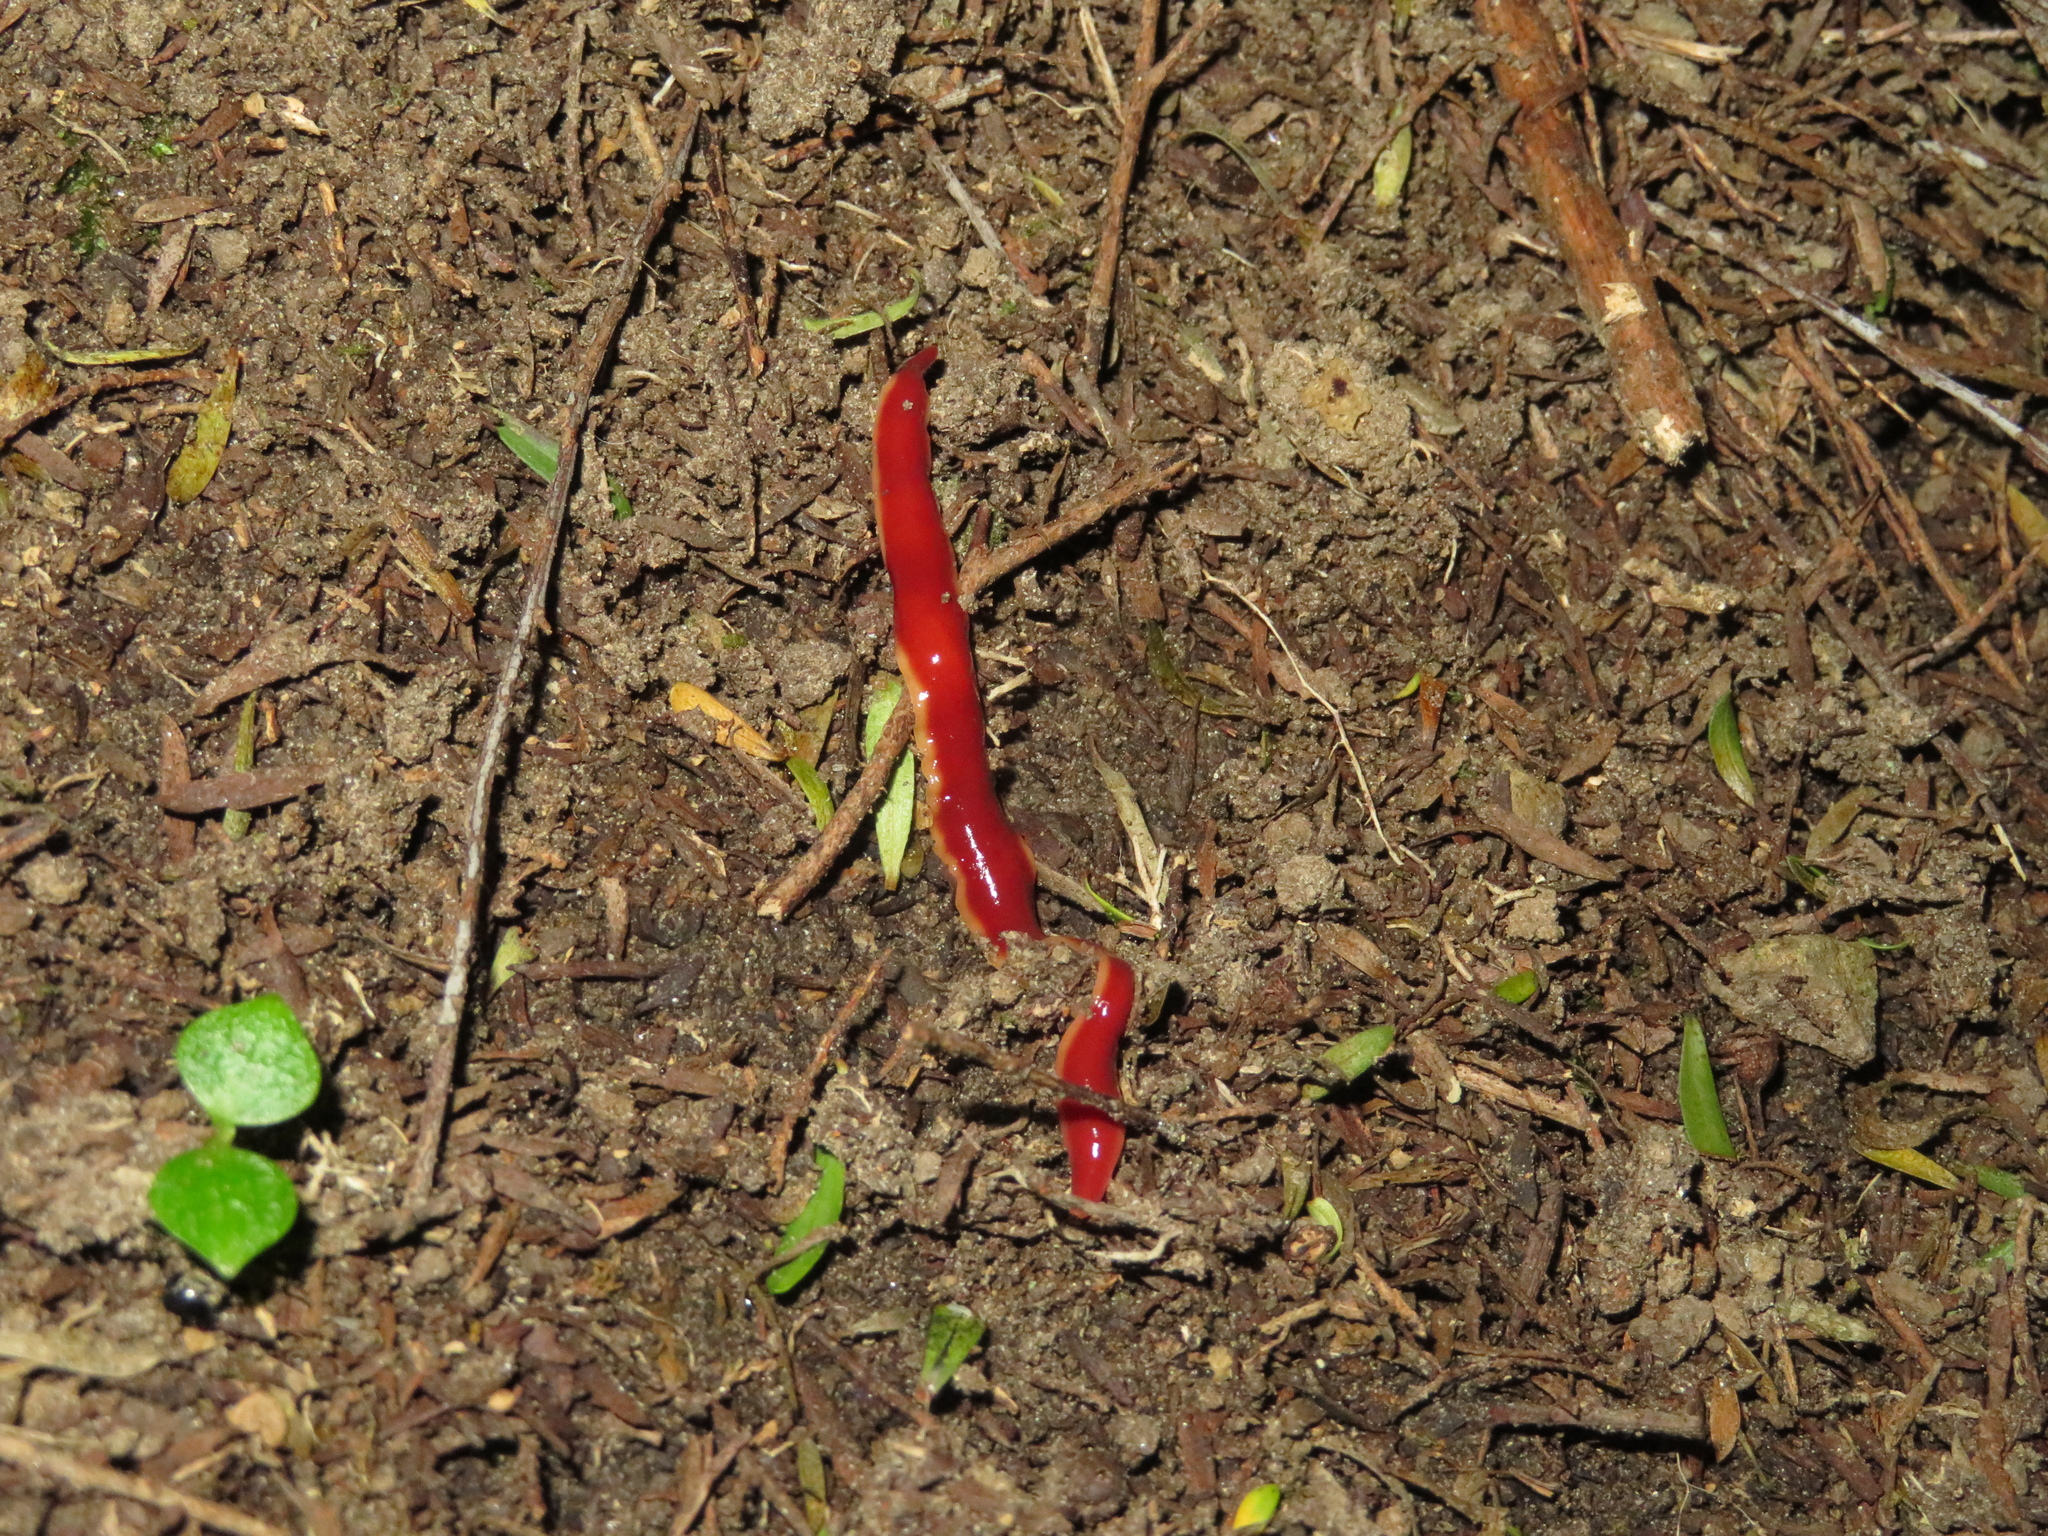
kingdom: Animalia
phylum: Platyhelminthes
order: Tricladida
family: Geoplanidae
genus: Arthurdendyus
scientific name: Arthurdendyus testaceus
